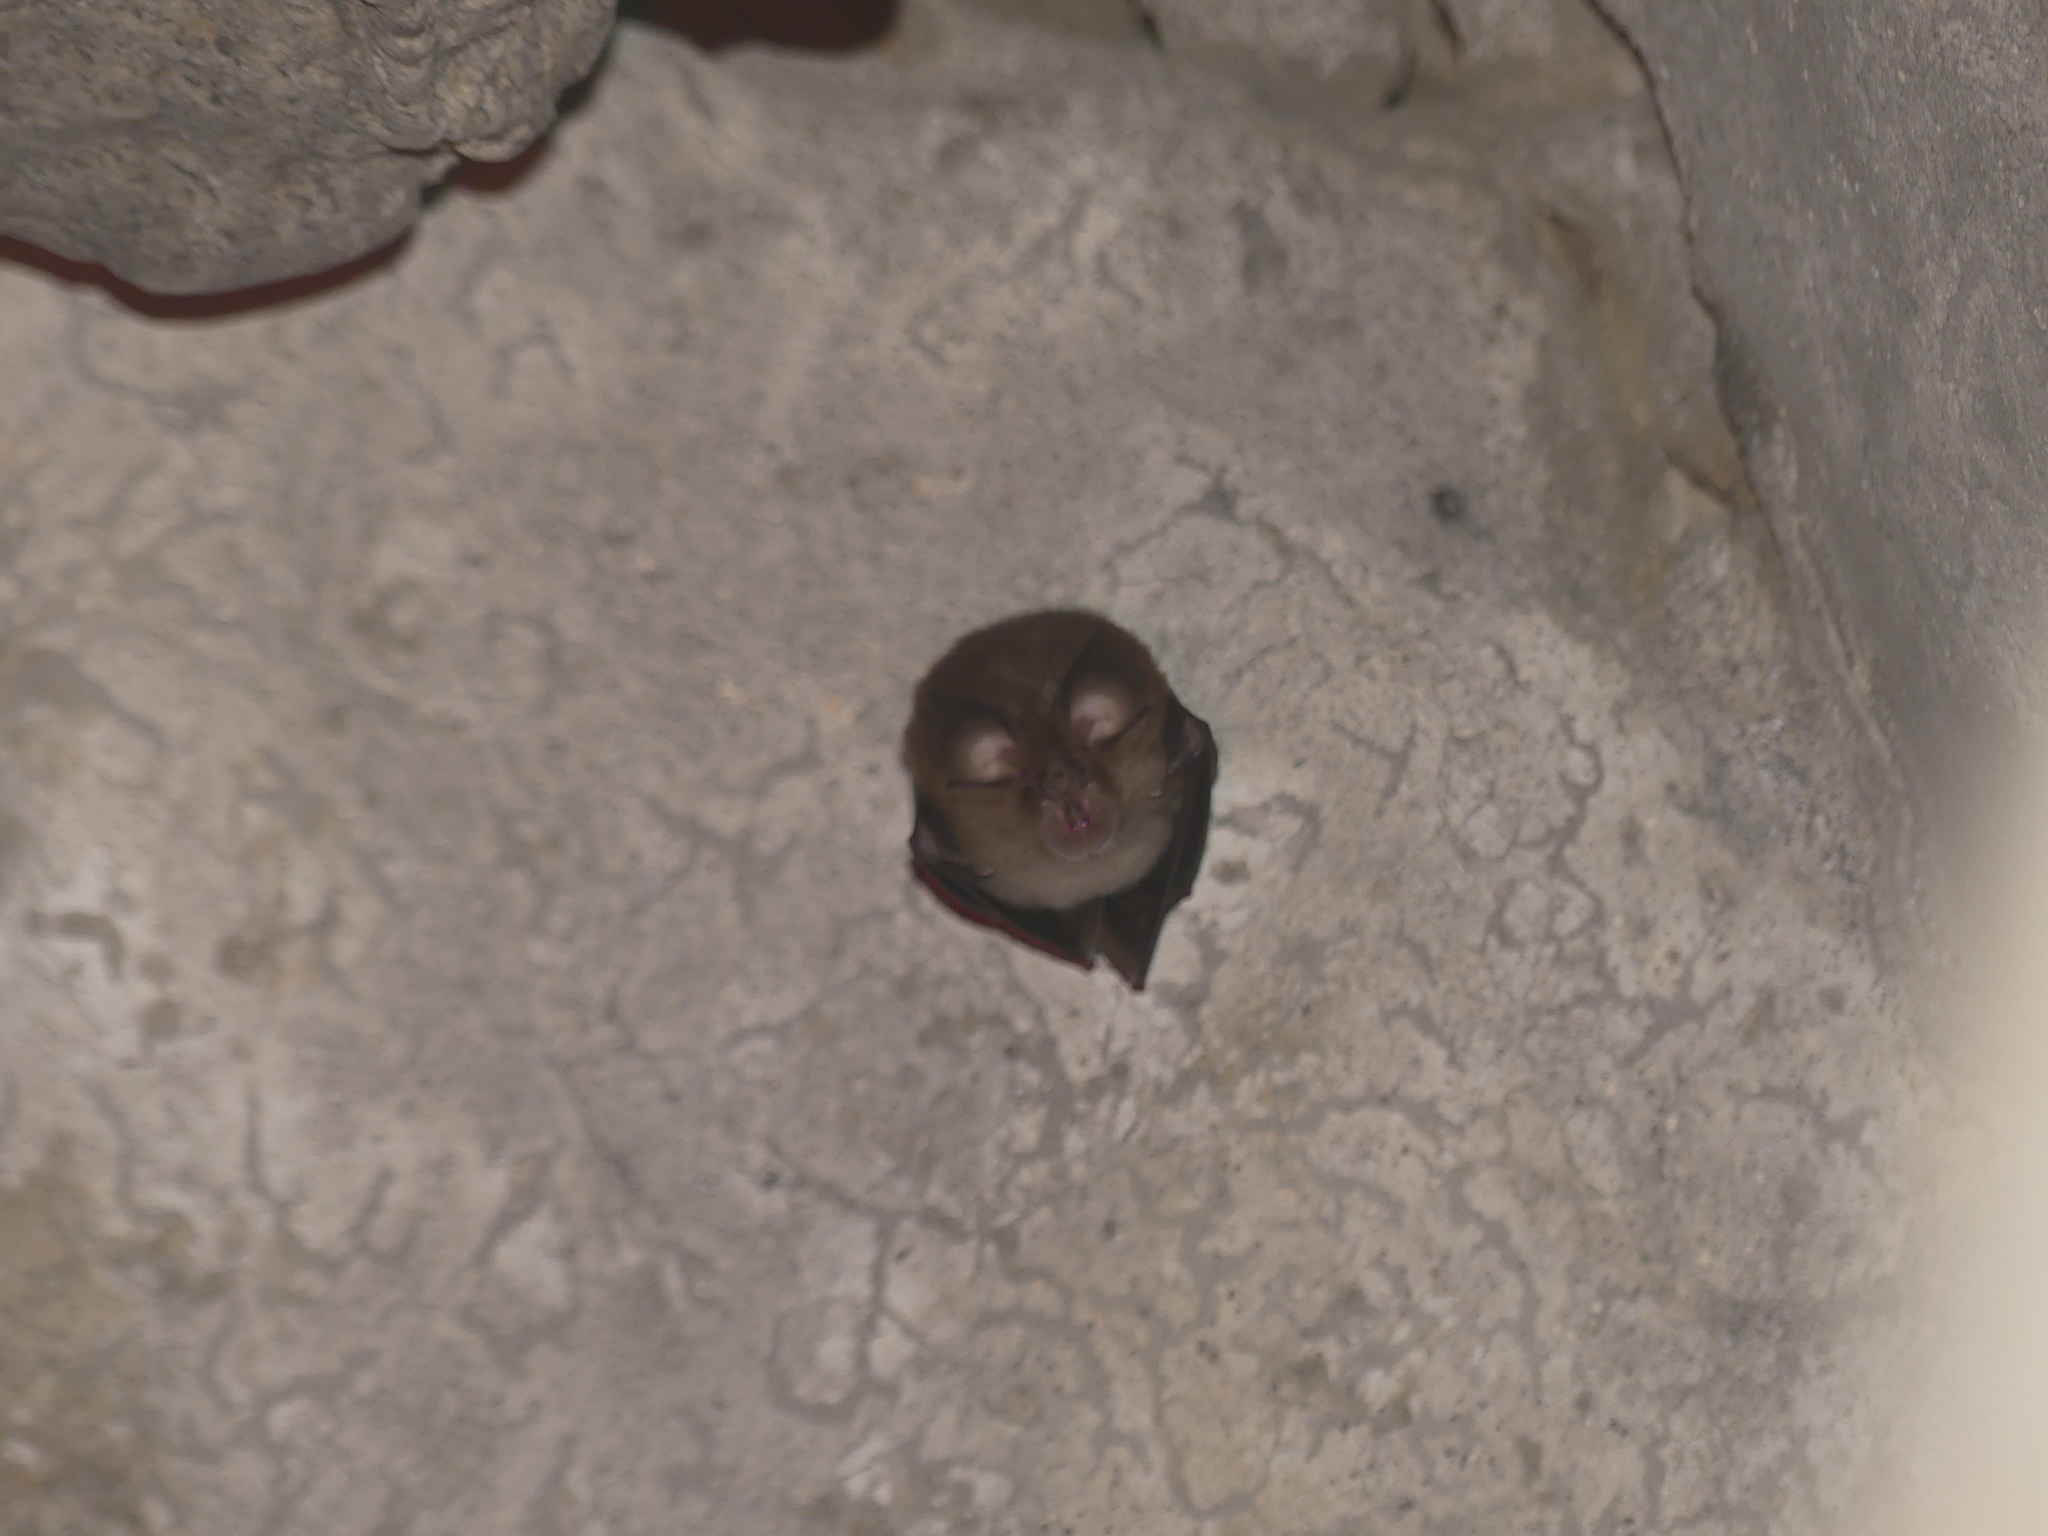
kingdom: Animalia
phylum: Chordata
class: Mammalia
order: Chiroptera
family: Rhinolophidae
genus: Rhinolophus
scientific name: Rhinolophus hipposideros
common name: Lesser horseshoe bat
